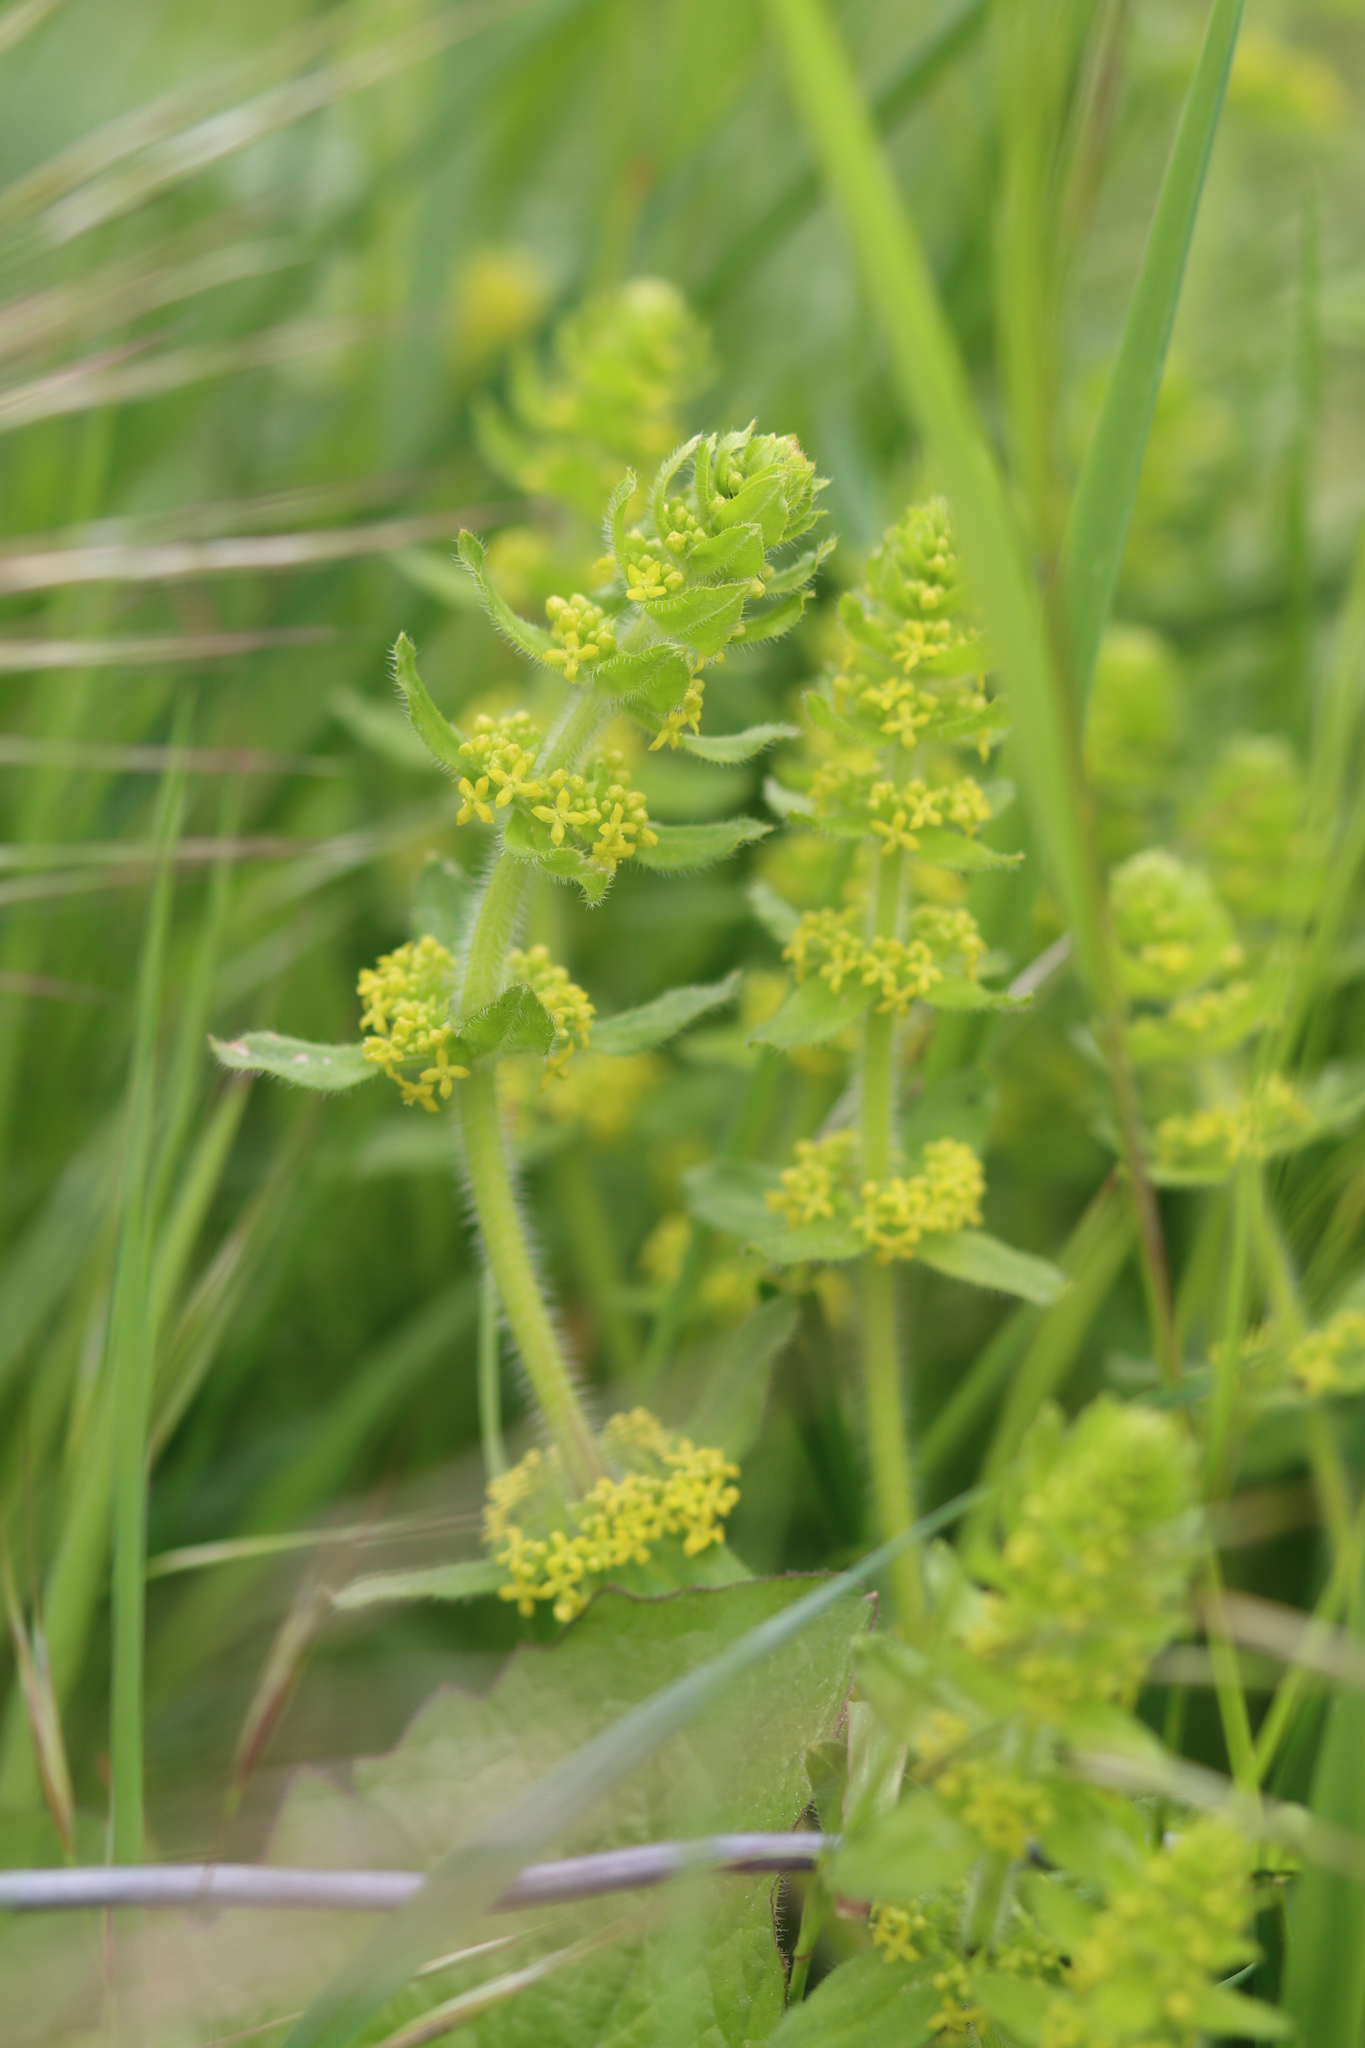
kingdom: Plantae
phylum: Tracheophyta
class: Magnoliopsida
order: Gentianales
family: Rubiaceae
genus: Cruciata
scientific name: Cruciata laevipes
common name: Crosswort
